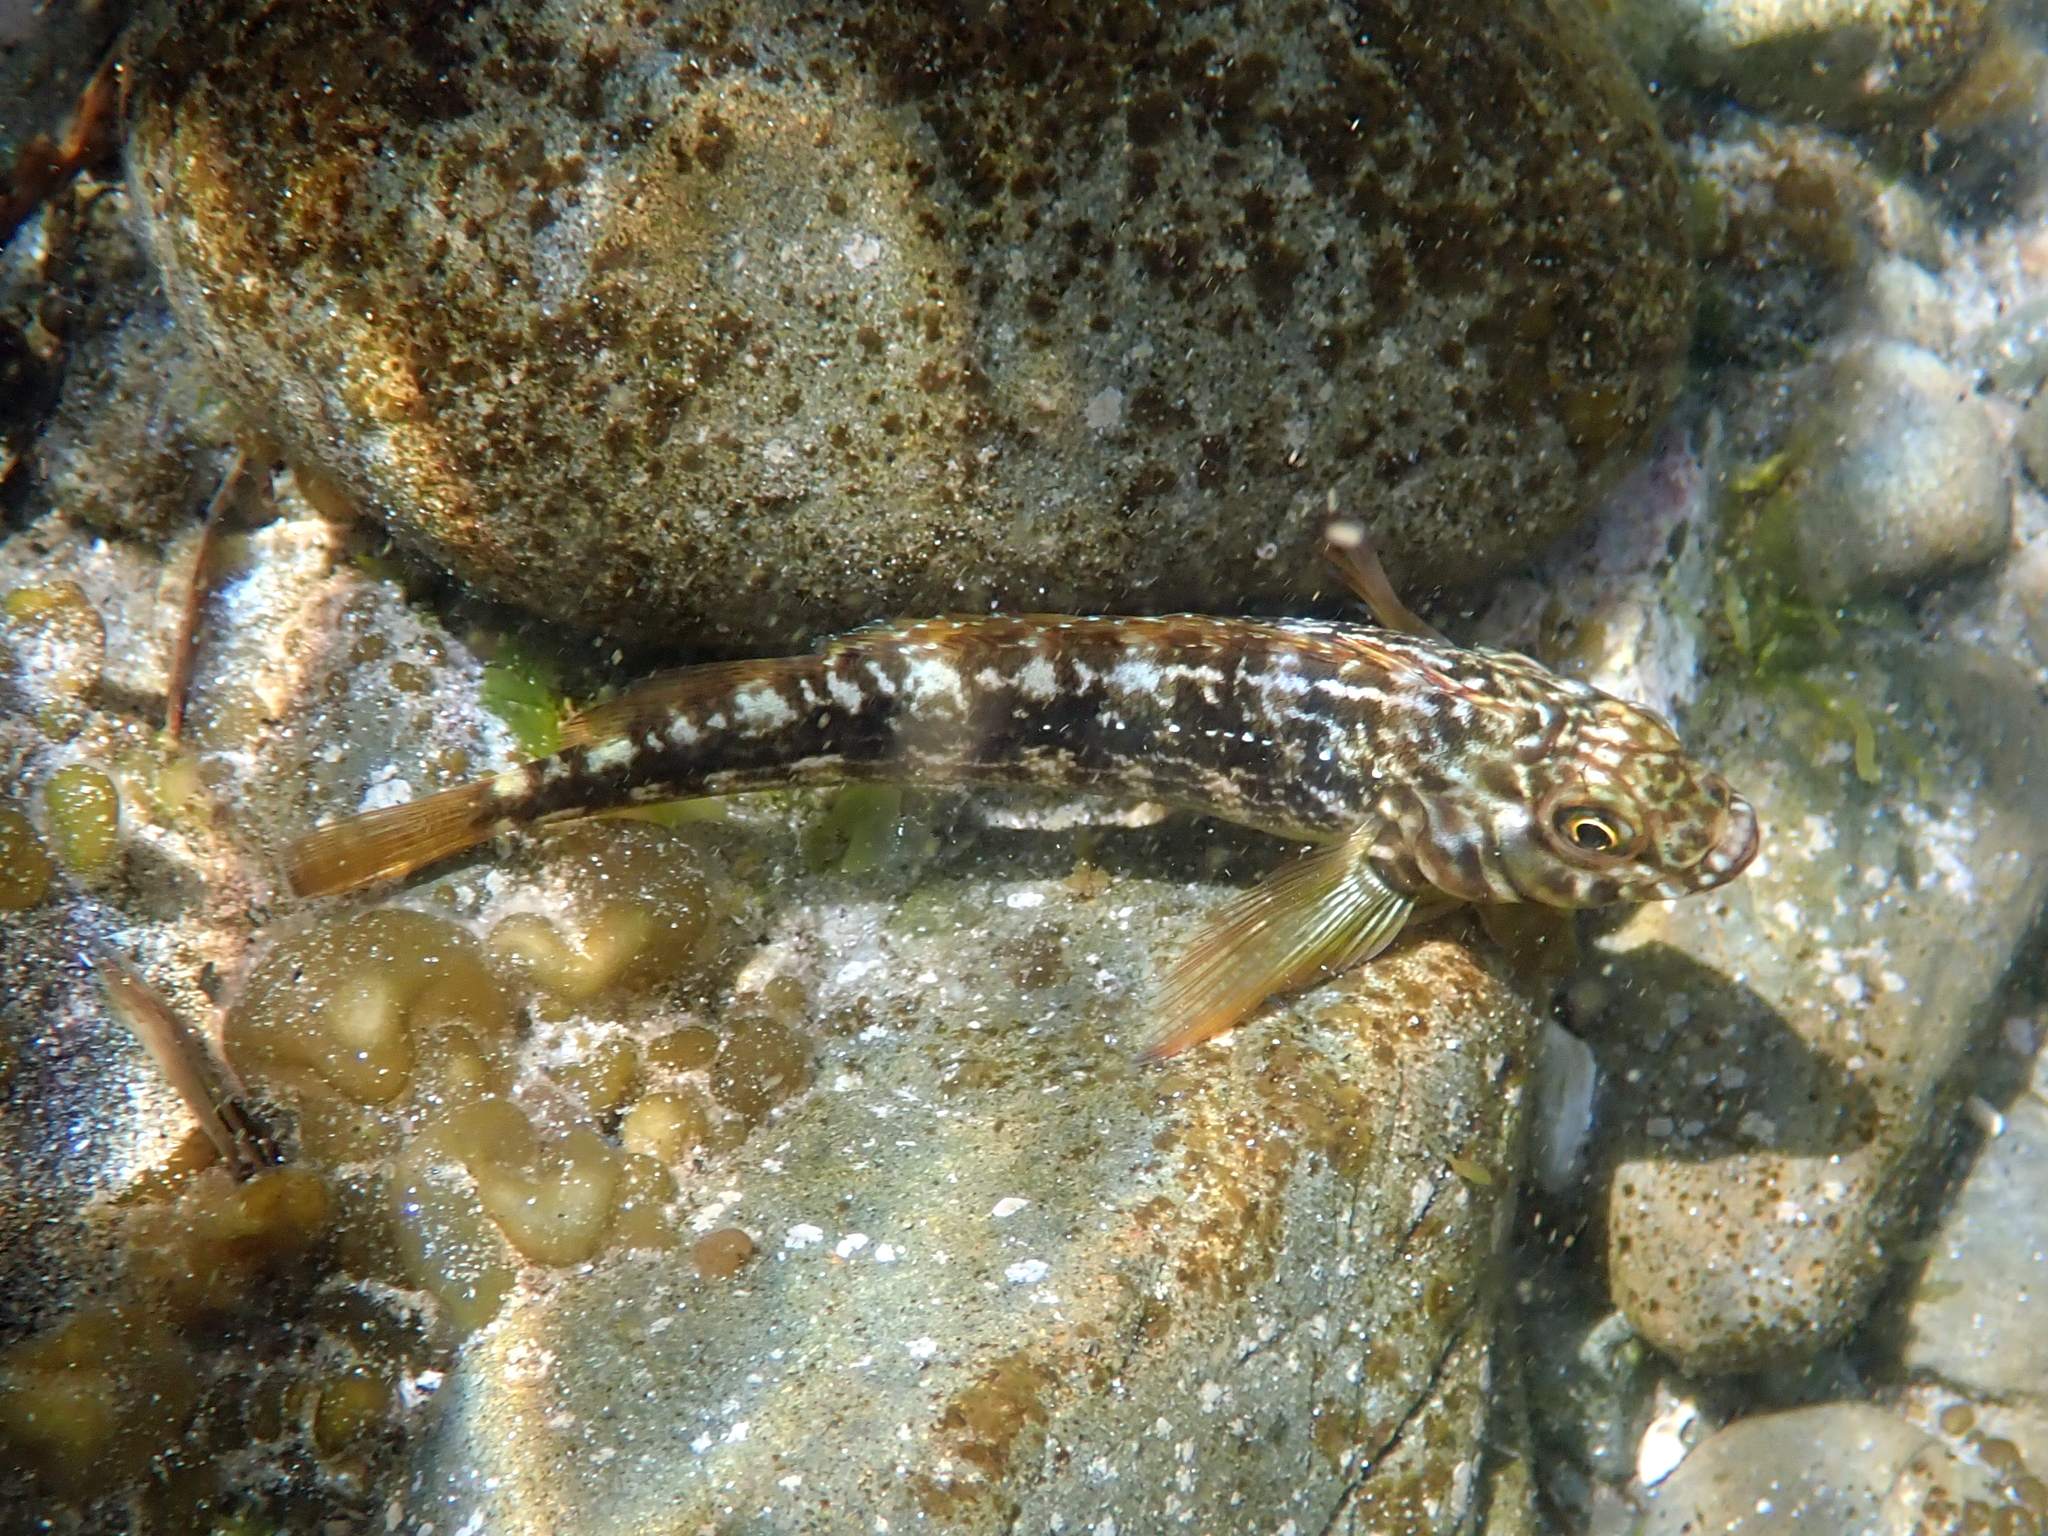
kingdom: Animalia
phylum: Chordata
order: Perciformes
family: Tripterygiidae
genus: Forsterygion
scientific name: Forsterygion varium
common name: Variable triplefin
